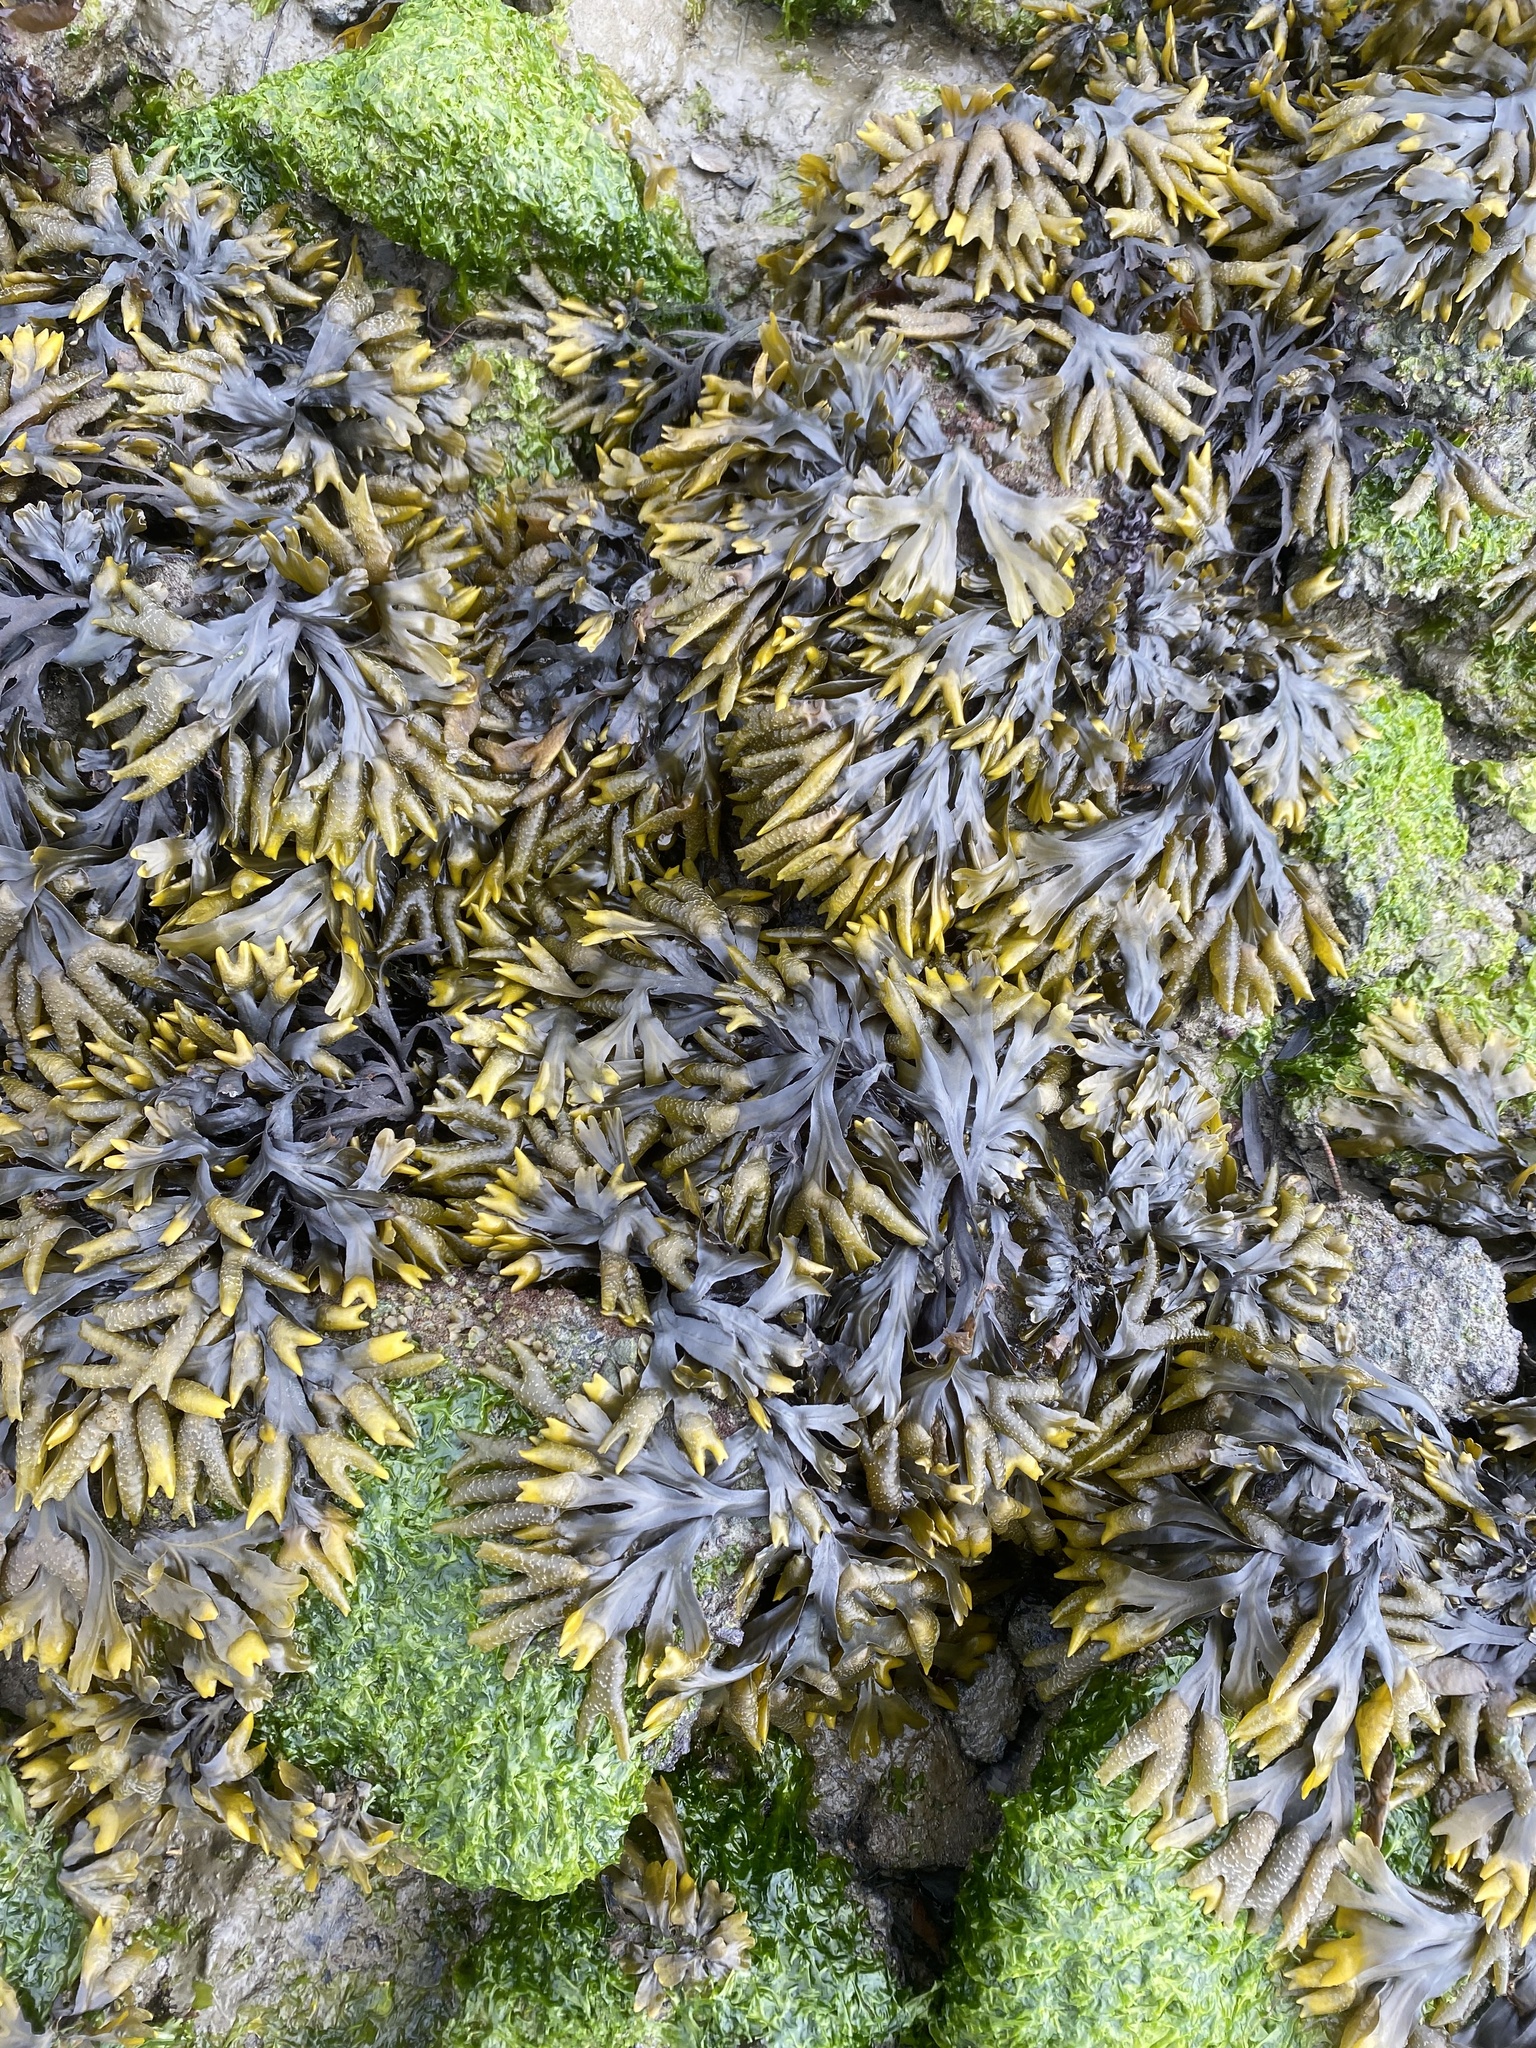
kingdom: Chromista
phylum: Ochrophyta
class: Phaeophyceae
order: Fucales
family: Fucaceae
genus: Fucus
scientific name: Fucus distichus
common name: Rockweed
